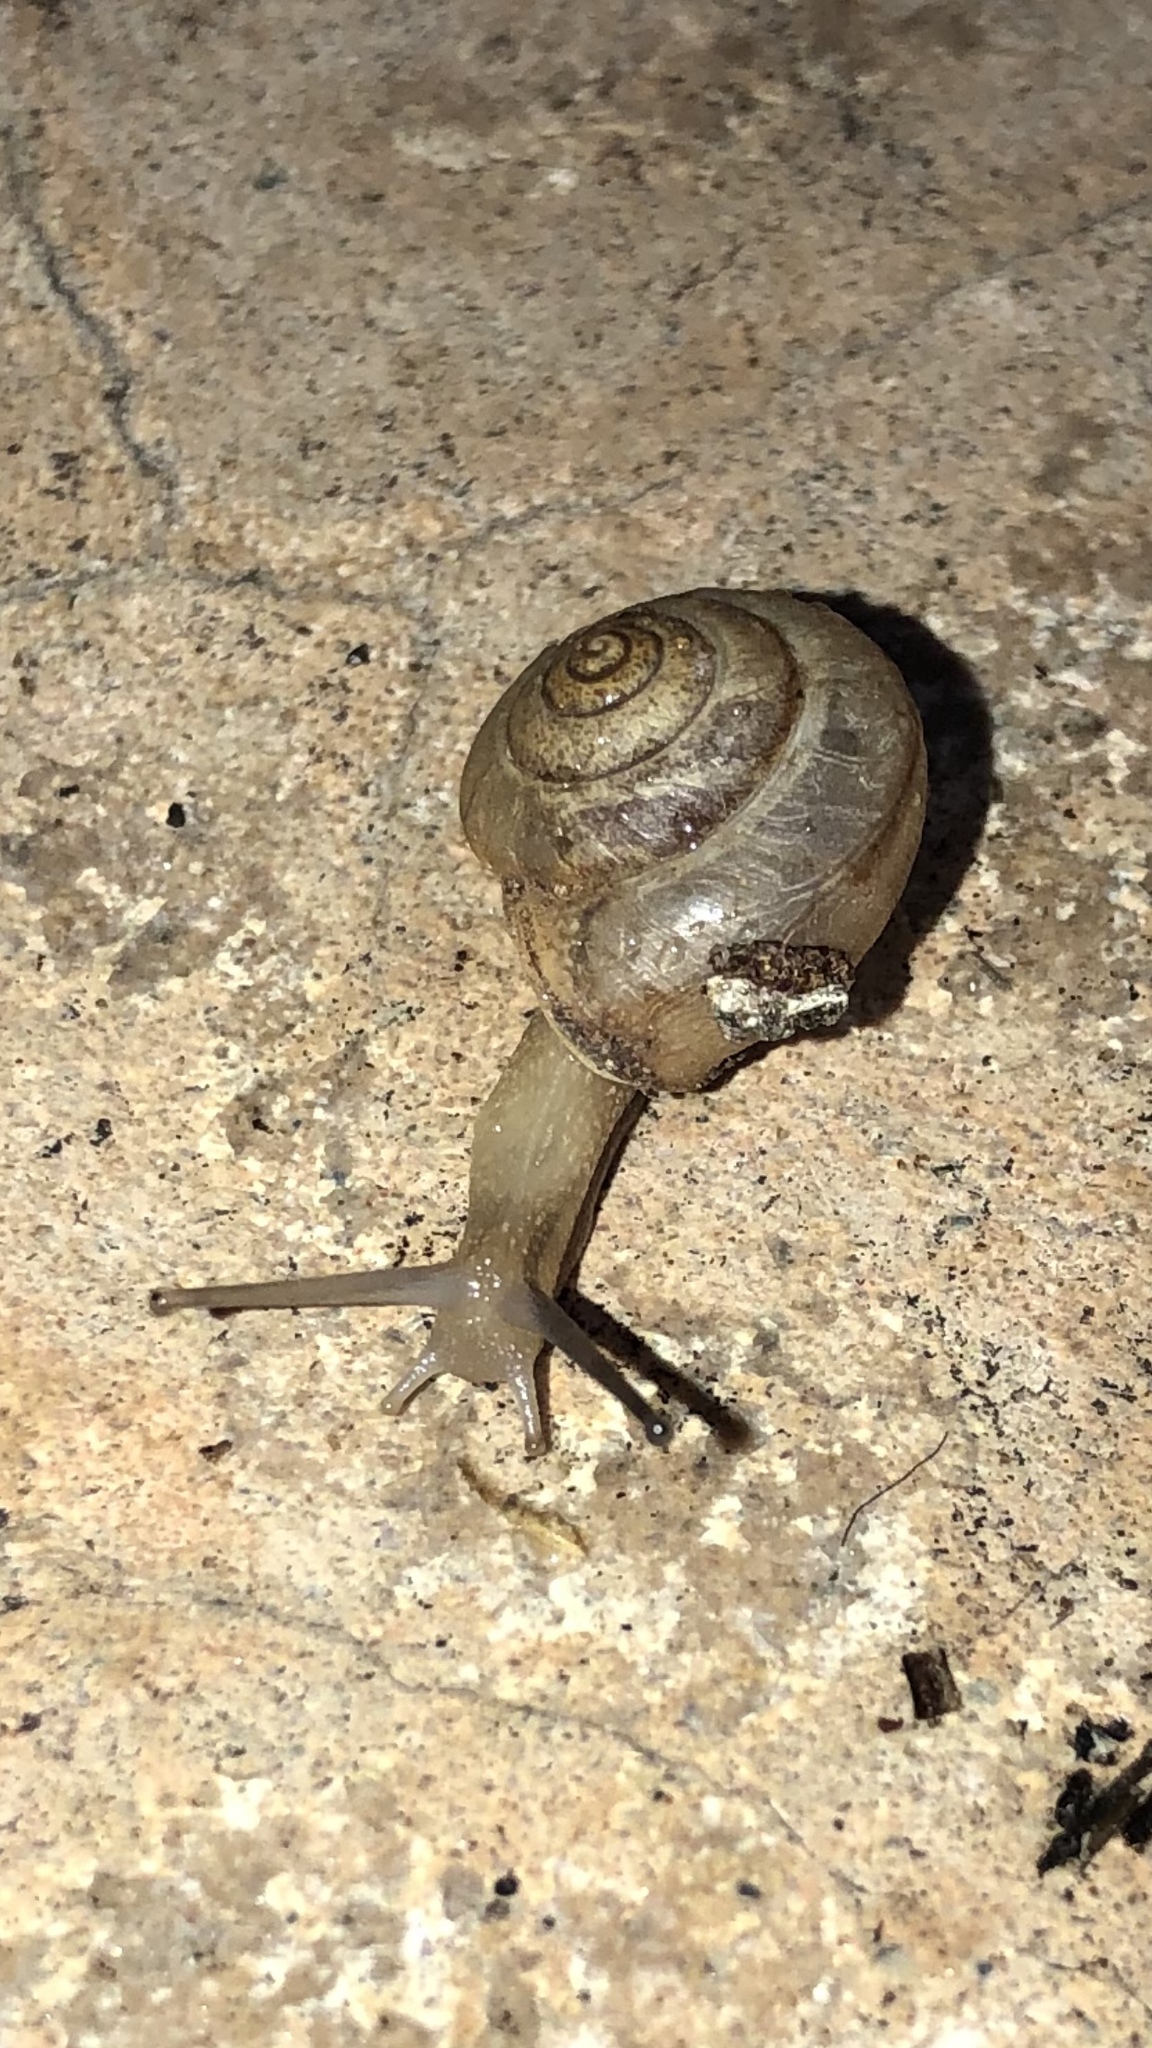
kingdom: Animalia
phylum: Mollusca
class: Gastropoda
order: Stylommatophora
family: Camaenidae
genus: Bradybaena
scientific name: Bradybaena similaris
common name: Asian trampsnail
